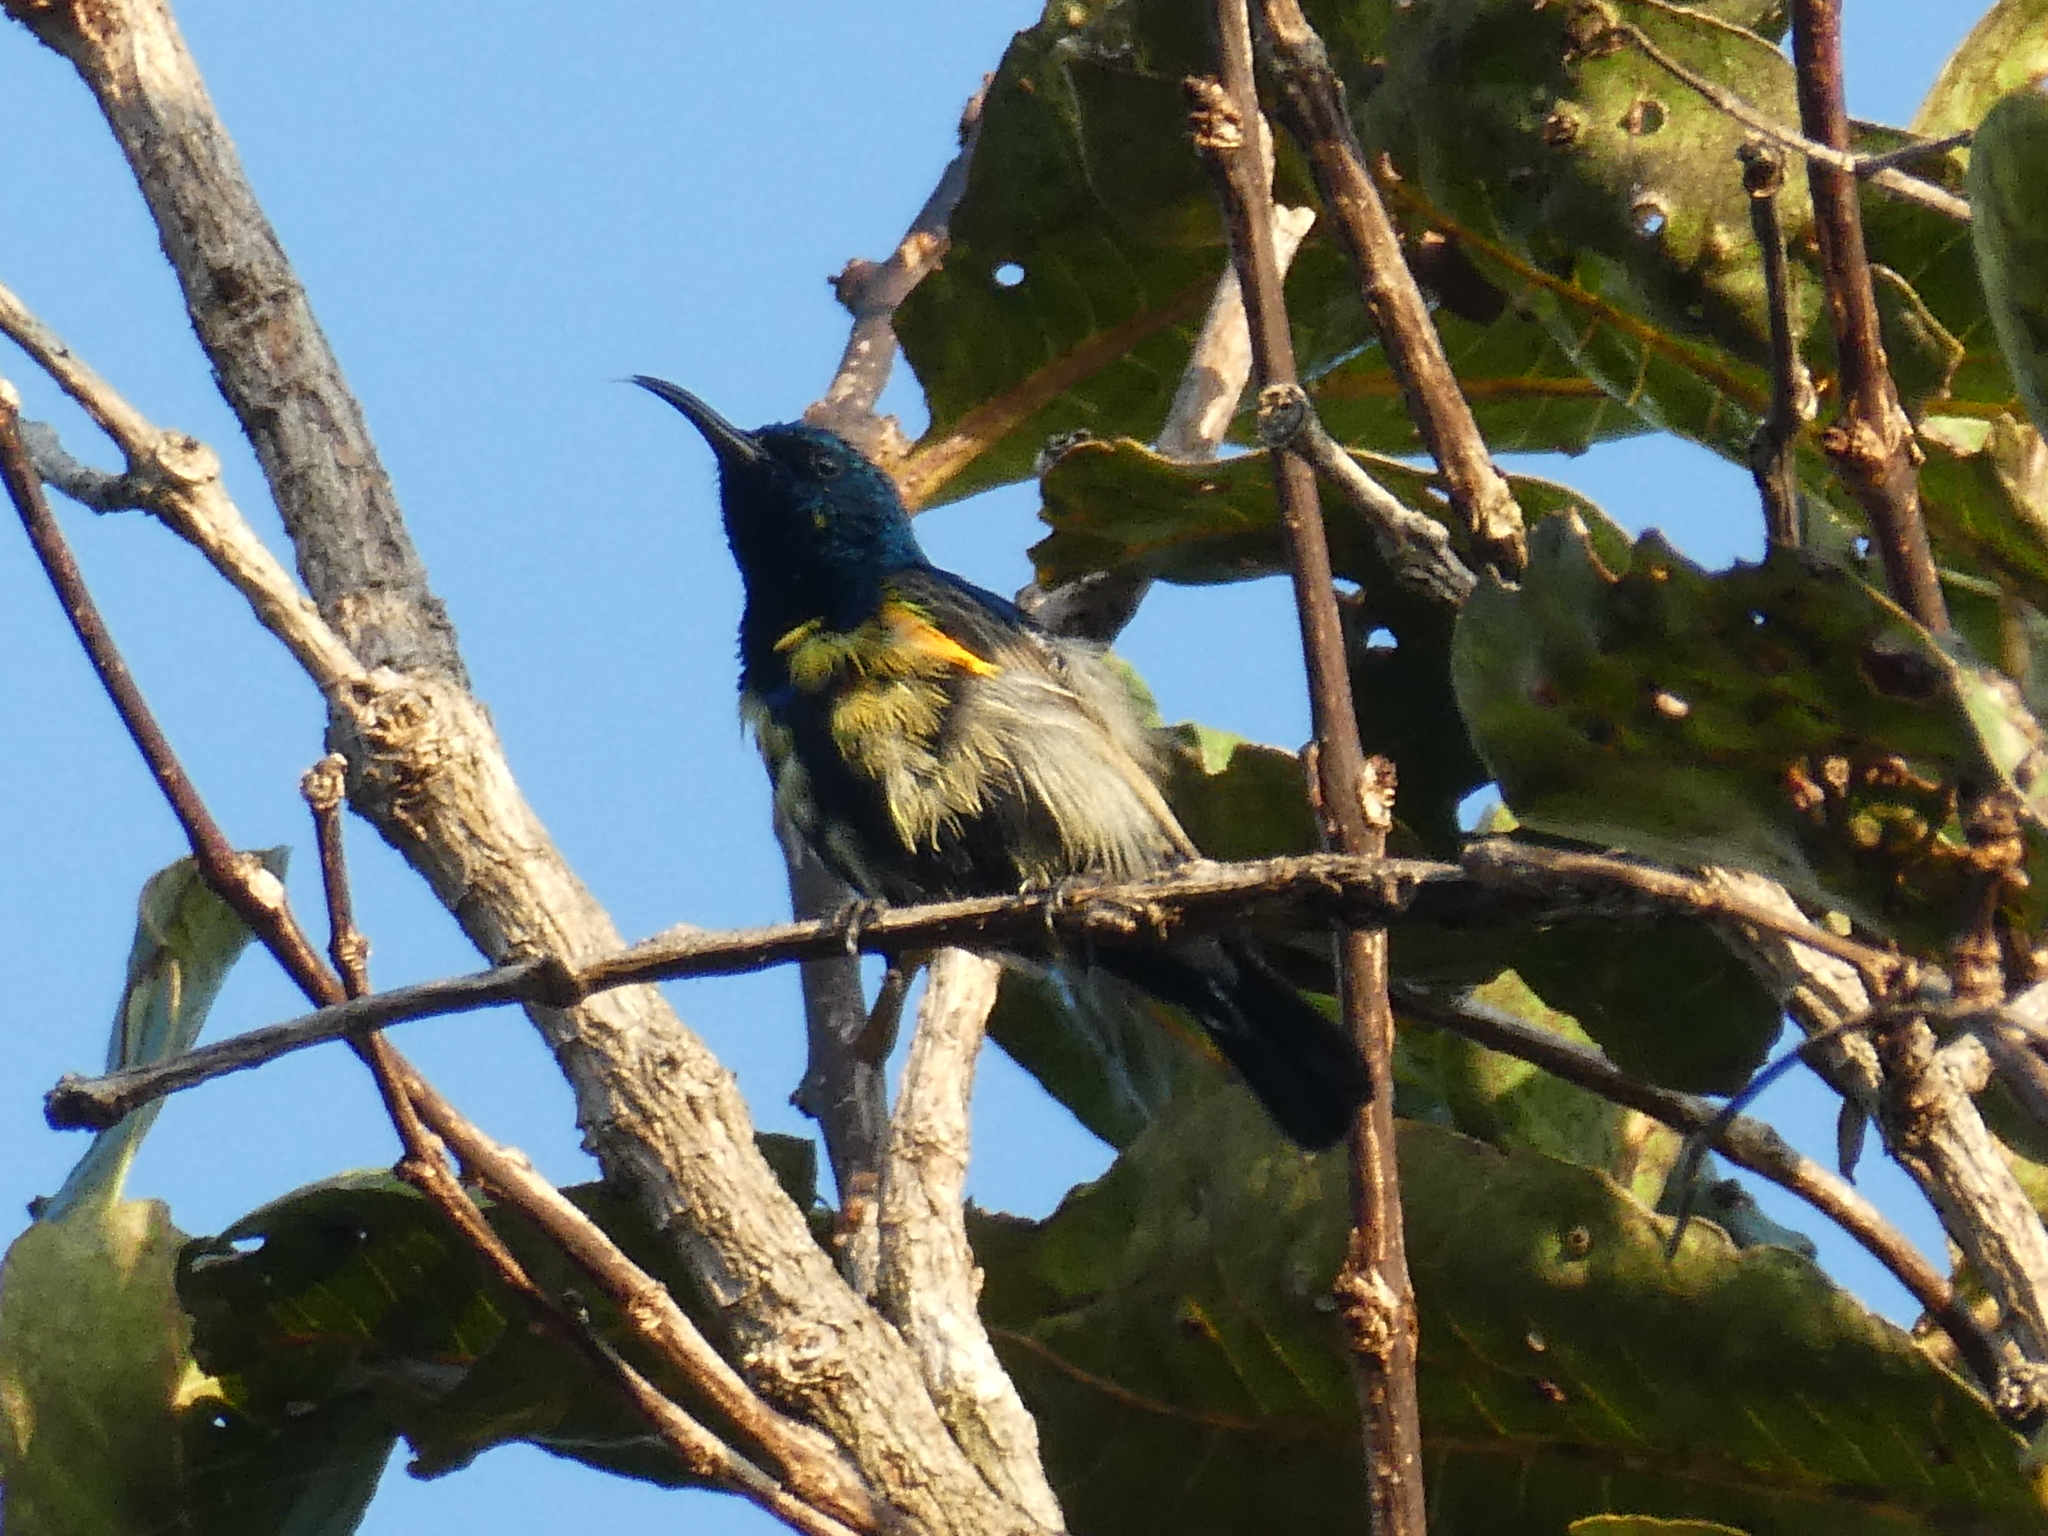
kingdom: Animalia
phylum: Chordata
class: Aves
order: Passeriformes
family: Nectariniidae
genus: Cinnyris
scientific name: Cinnyris asiaticus
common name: Purple sunbird
